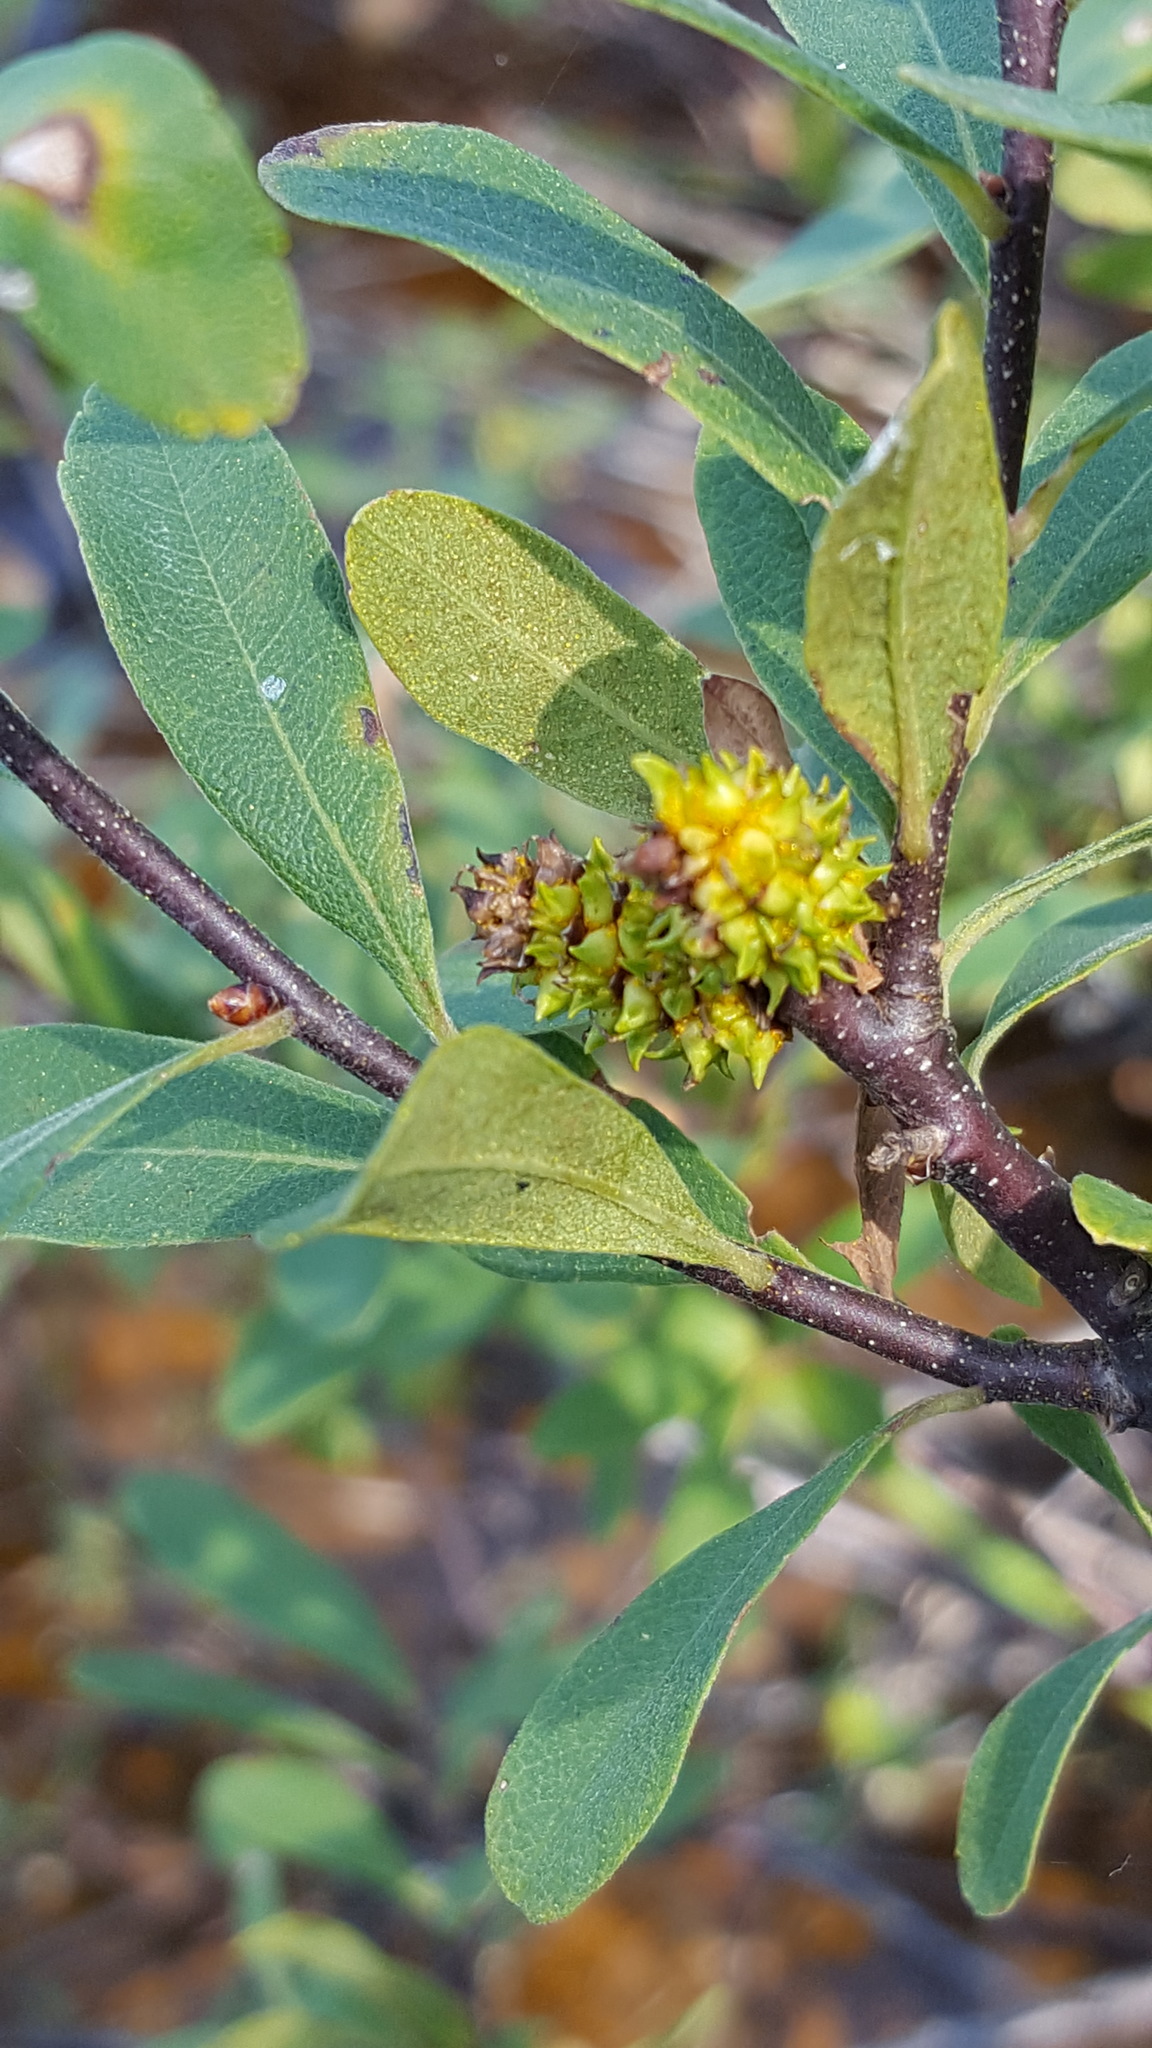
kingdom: Plantae
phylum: Tracheophyta
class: Magnoliopsida
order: Fagales
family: Myricaceae
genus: Myrica
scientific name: Myrica gale
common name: Sweet gale
